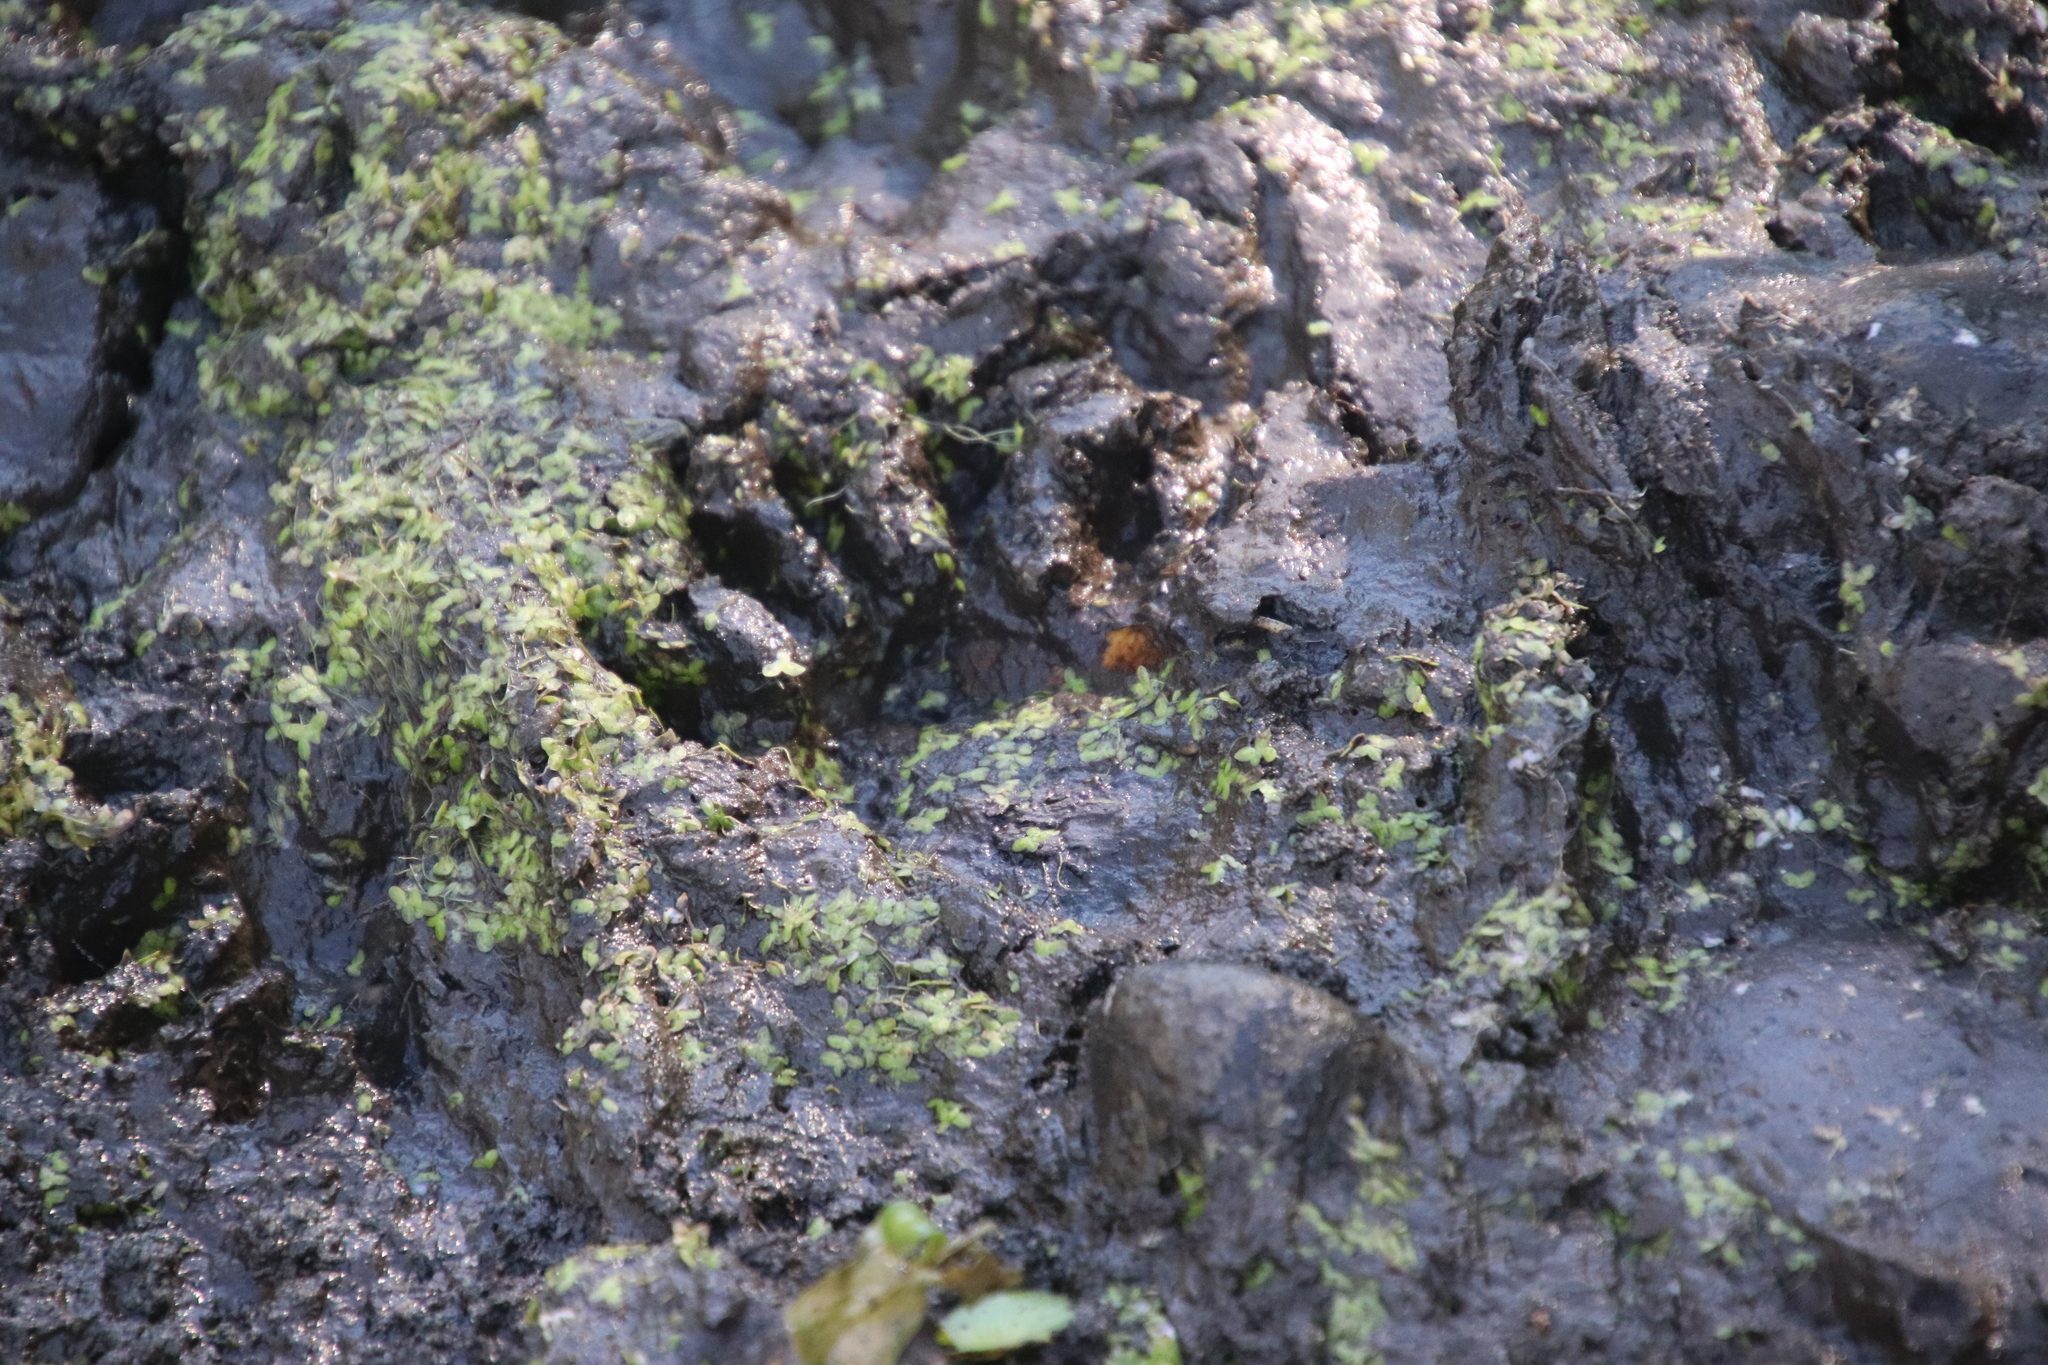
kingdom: Animalia
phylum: Chordata
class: Mammalia
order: Carnivora
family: Procyonidae
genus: Procyon
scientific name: Procyon lotor
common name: Raccoon
